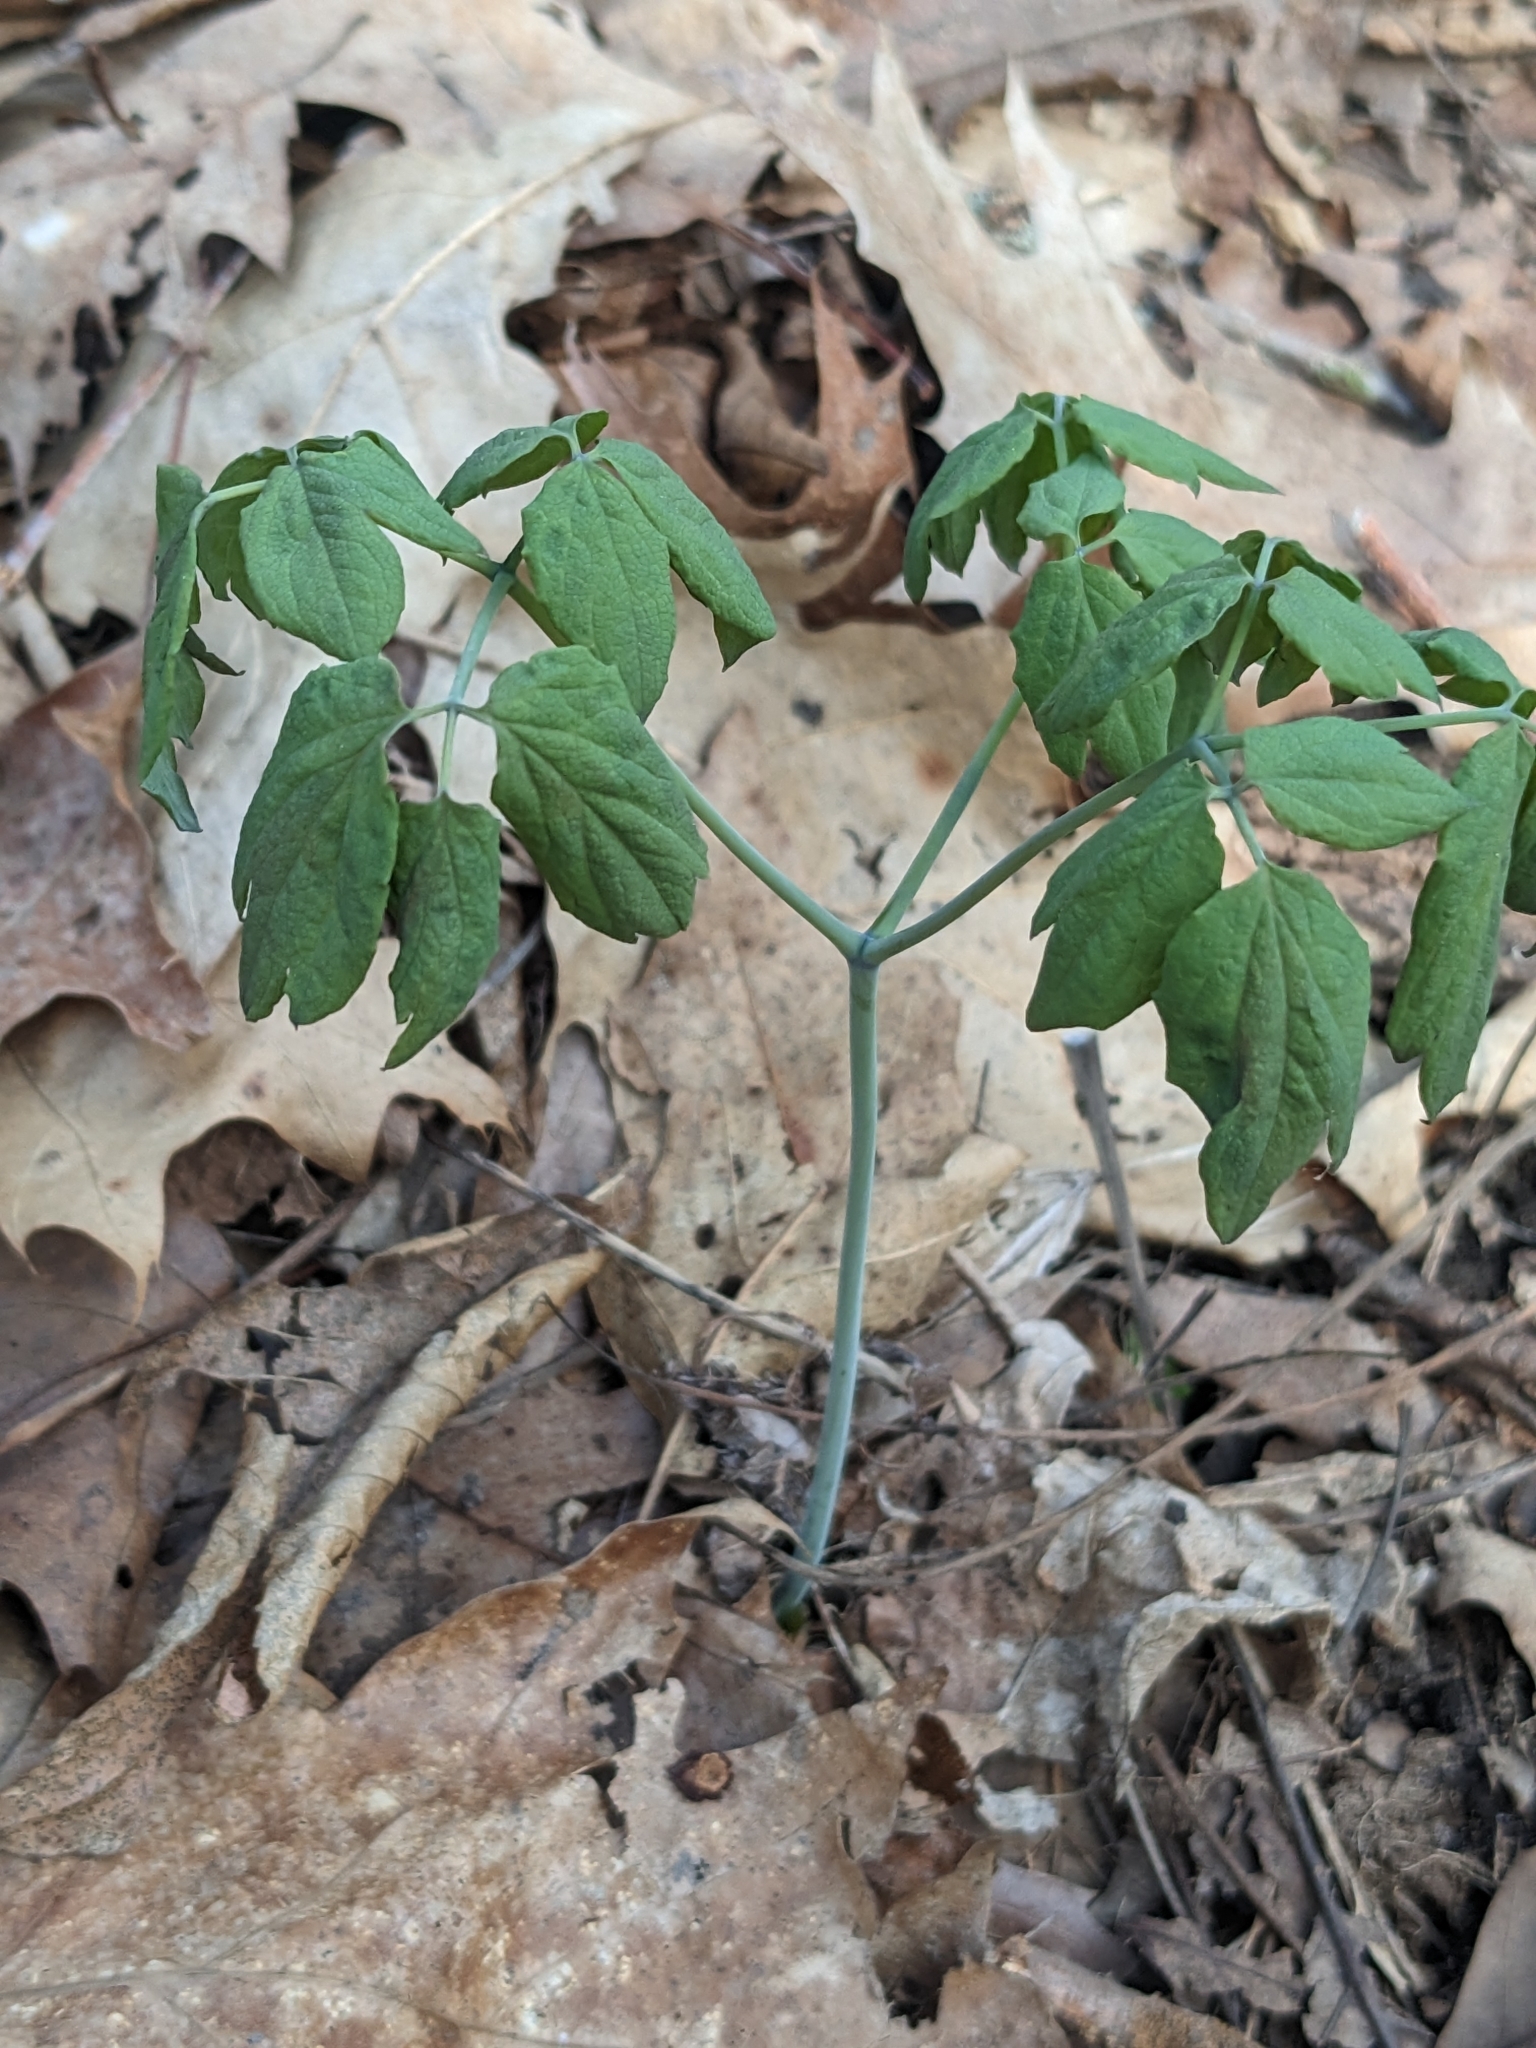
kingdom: Plantae
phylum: Tracheophyta
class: Magnoliopsida
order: Ranunculales
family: Berberidaceae
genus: Caulophyllum
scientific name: Caulophyllum thalictroides
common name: Blue cohosh
